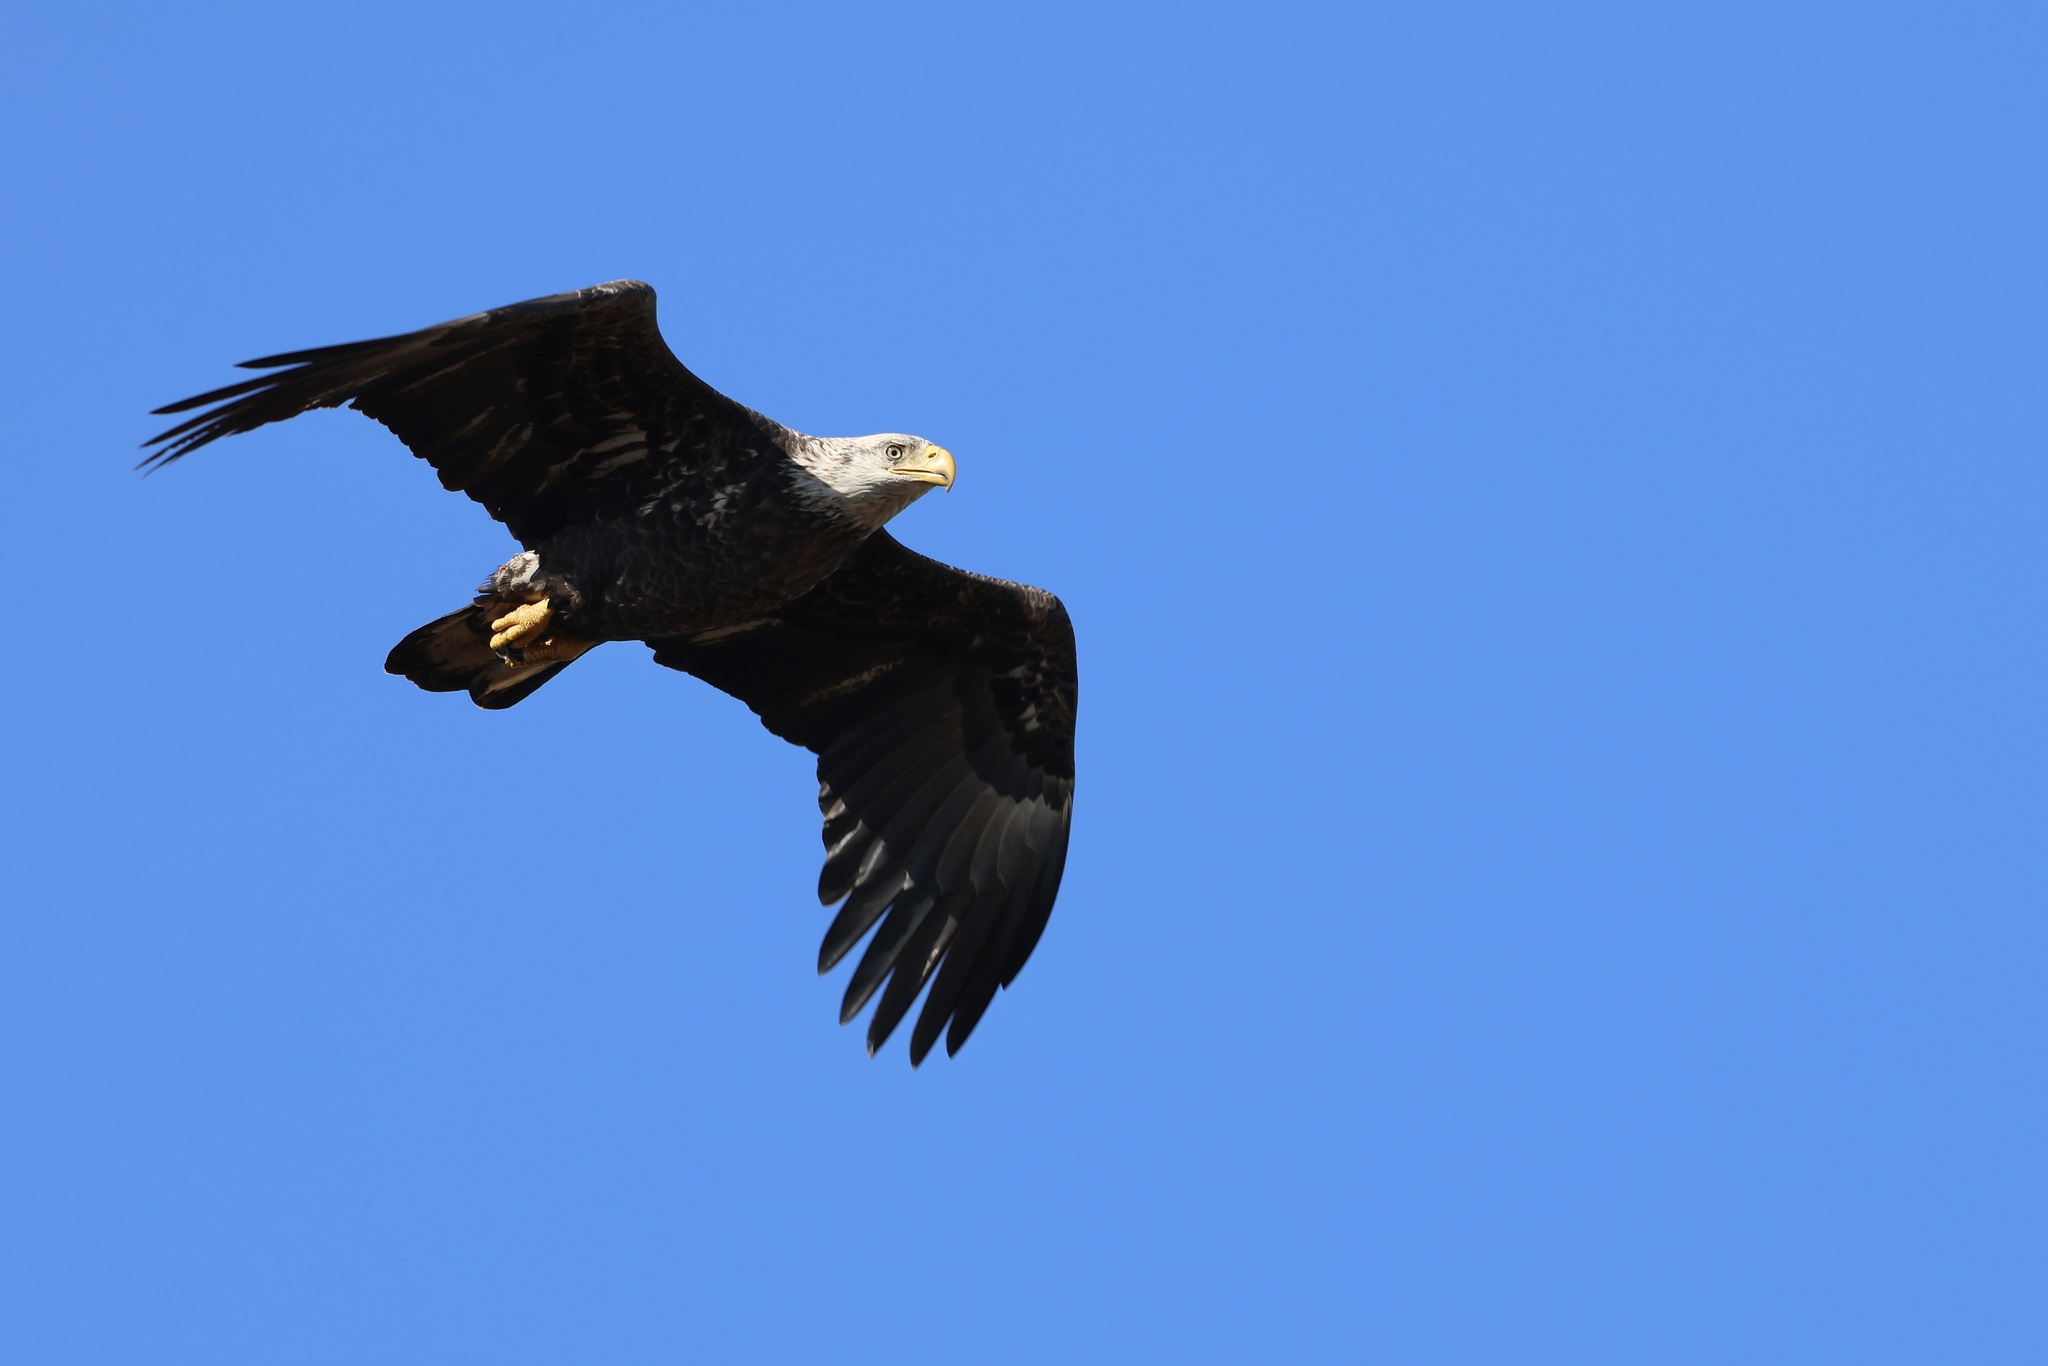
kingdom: Animalia
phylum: Chordata
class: Aves
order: Accipitriformes
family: Accipitridae
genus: Haliaeetus
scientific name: Haliaeetus leucocephalus
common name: Bald eagle
